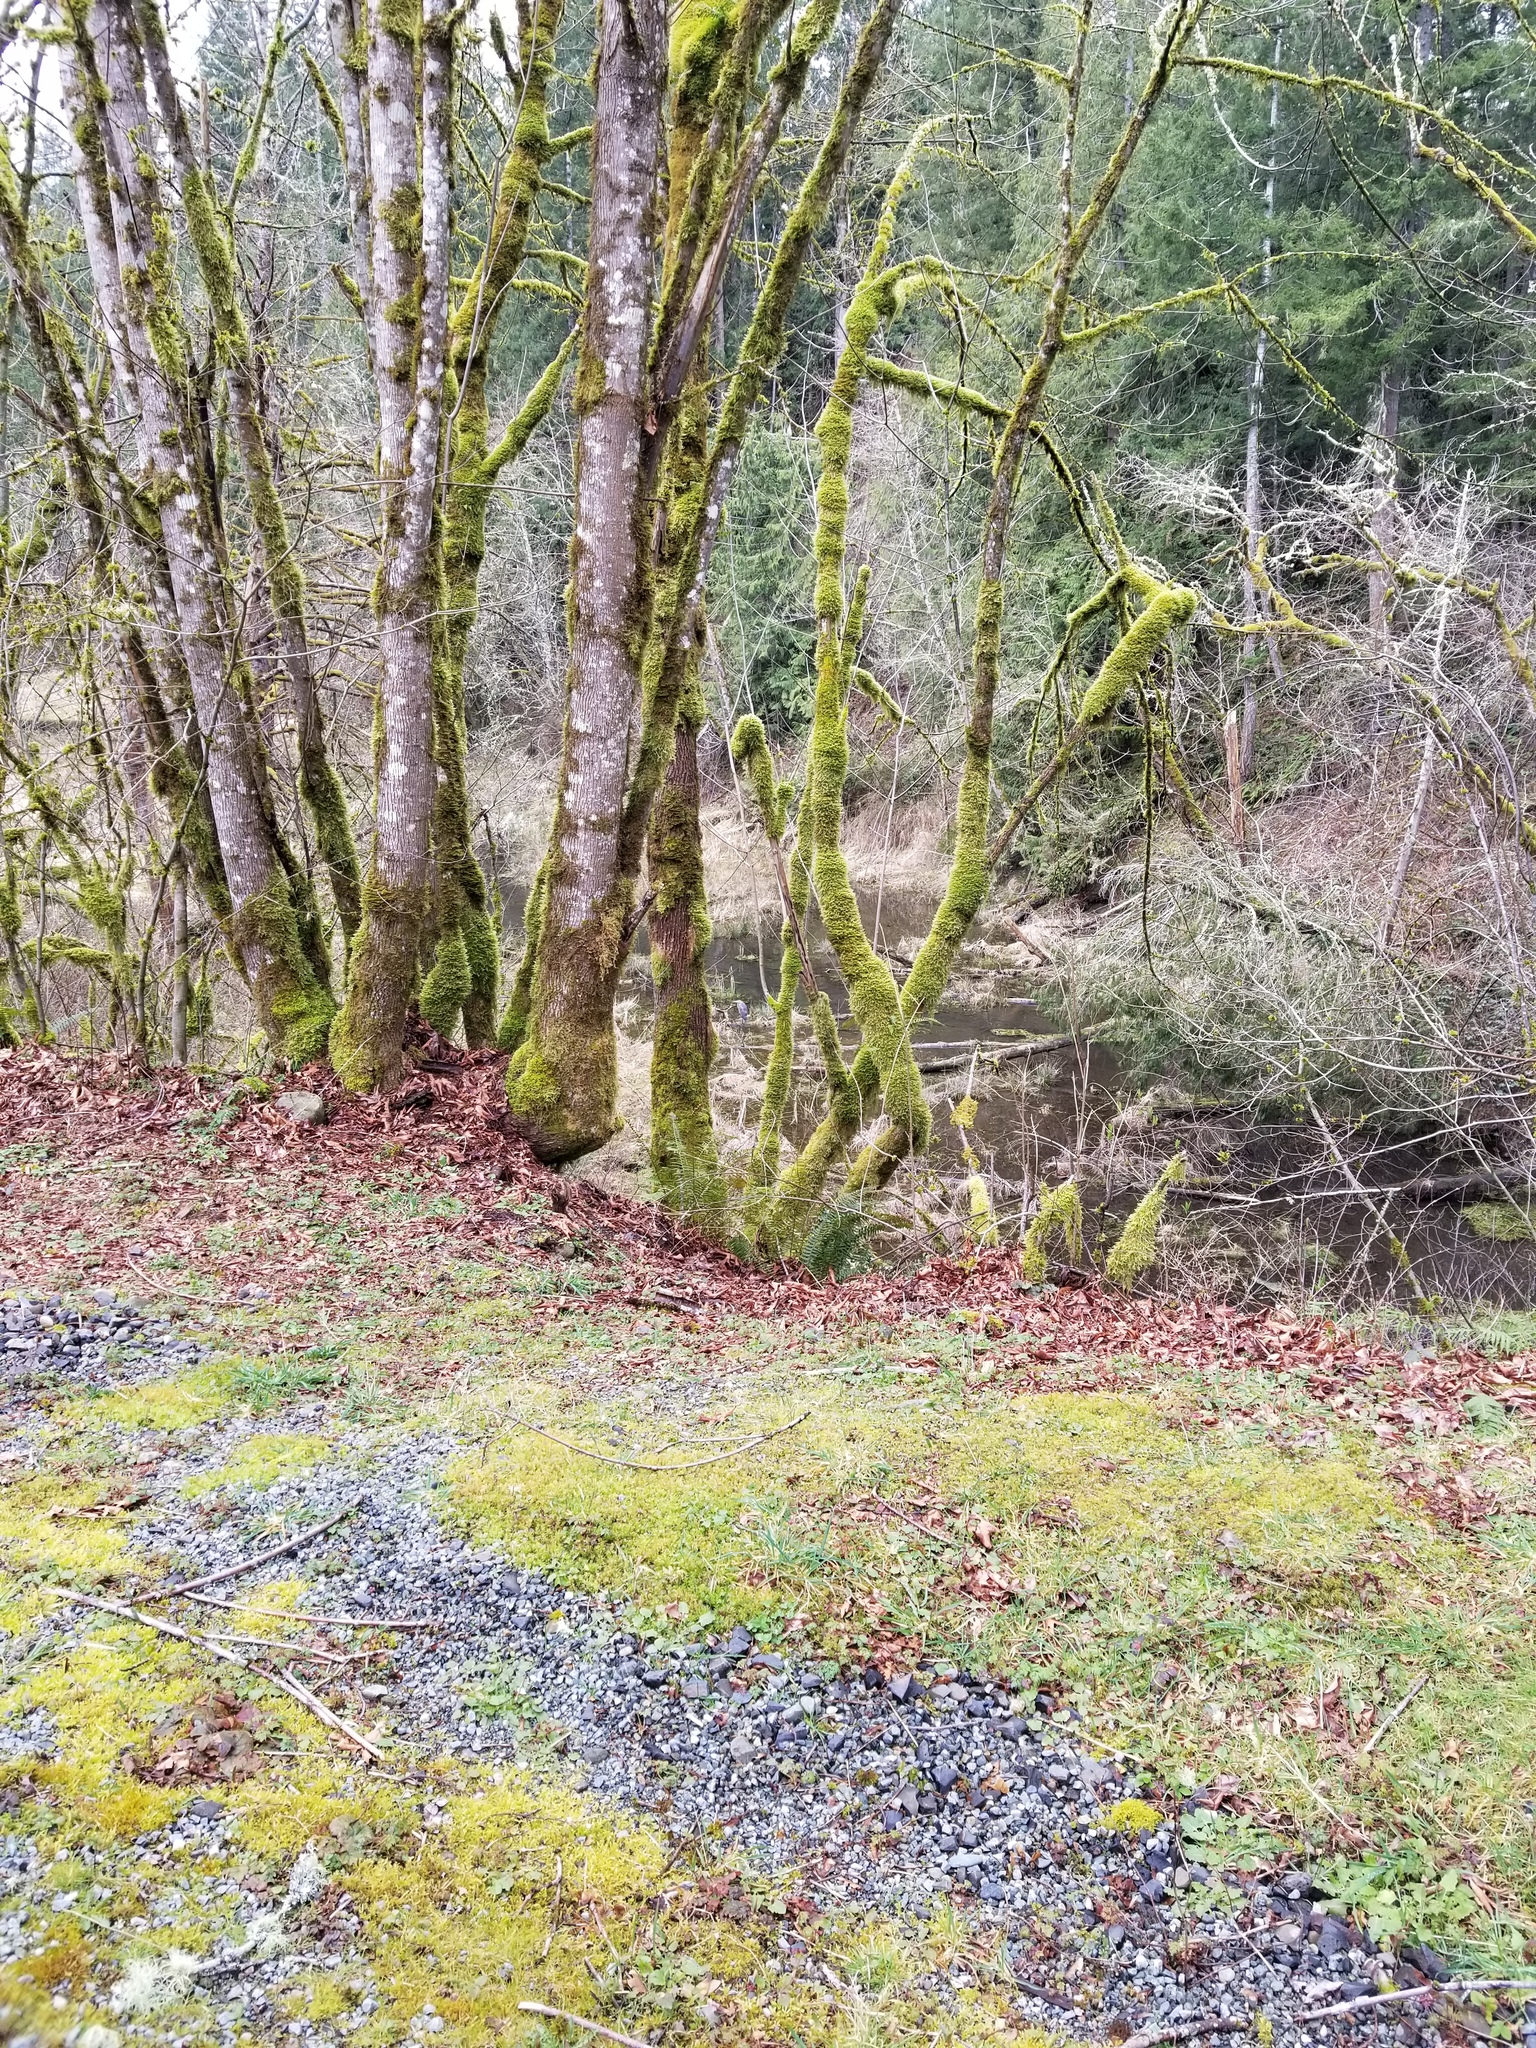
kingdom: Animalia
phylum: Chordata
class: Aves
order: Pelecaniformes
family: Ardeidae
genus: Ardea
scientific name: Ardea herodias
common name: Great blue heron
